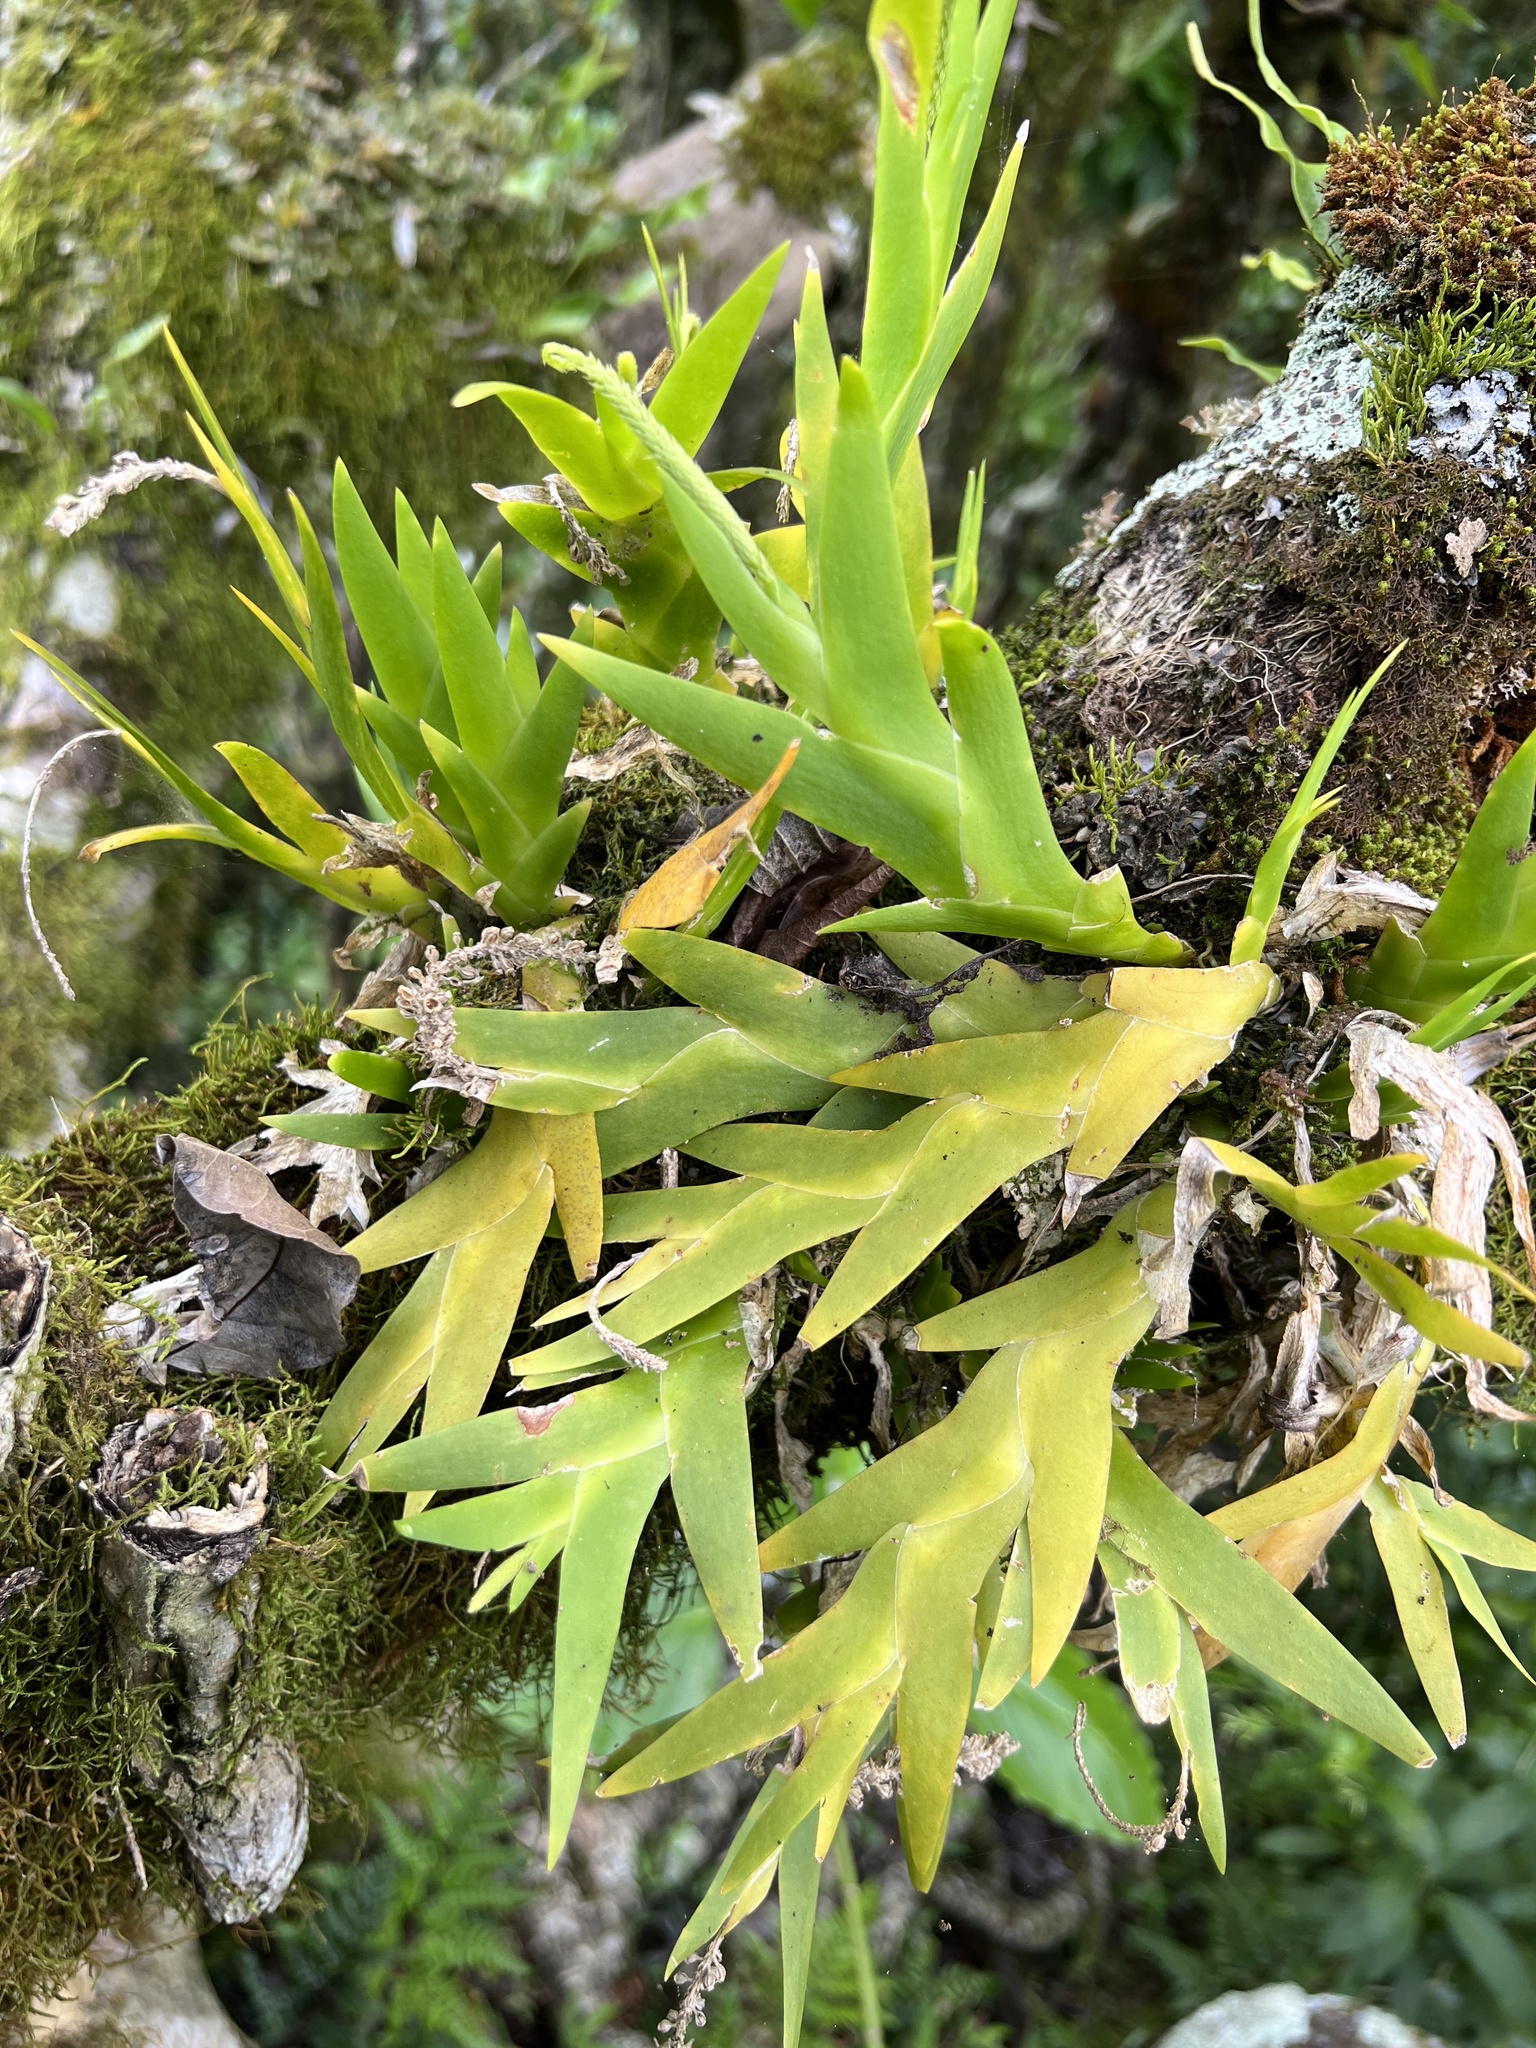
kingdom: Plantae
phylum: Tracheophyta
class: Liliopsida
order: Asparagales
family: Orchidaceae
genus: Oberonia
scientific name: Oberonia equitans
